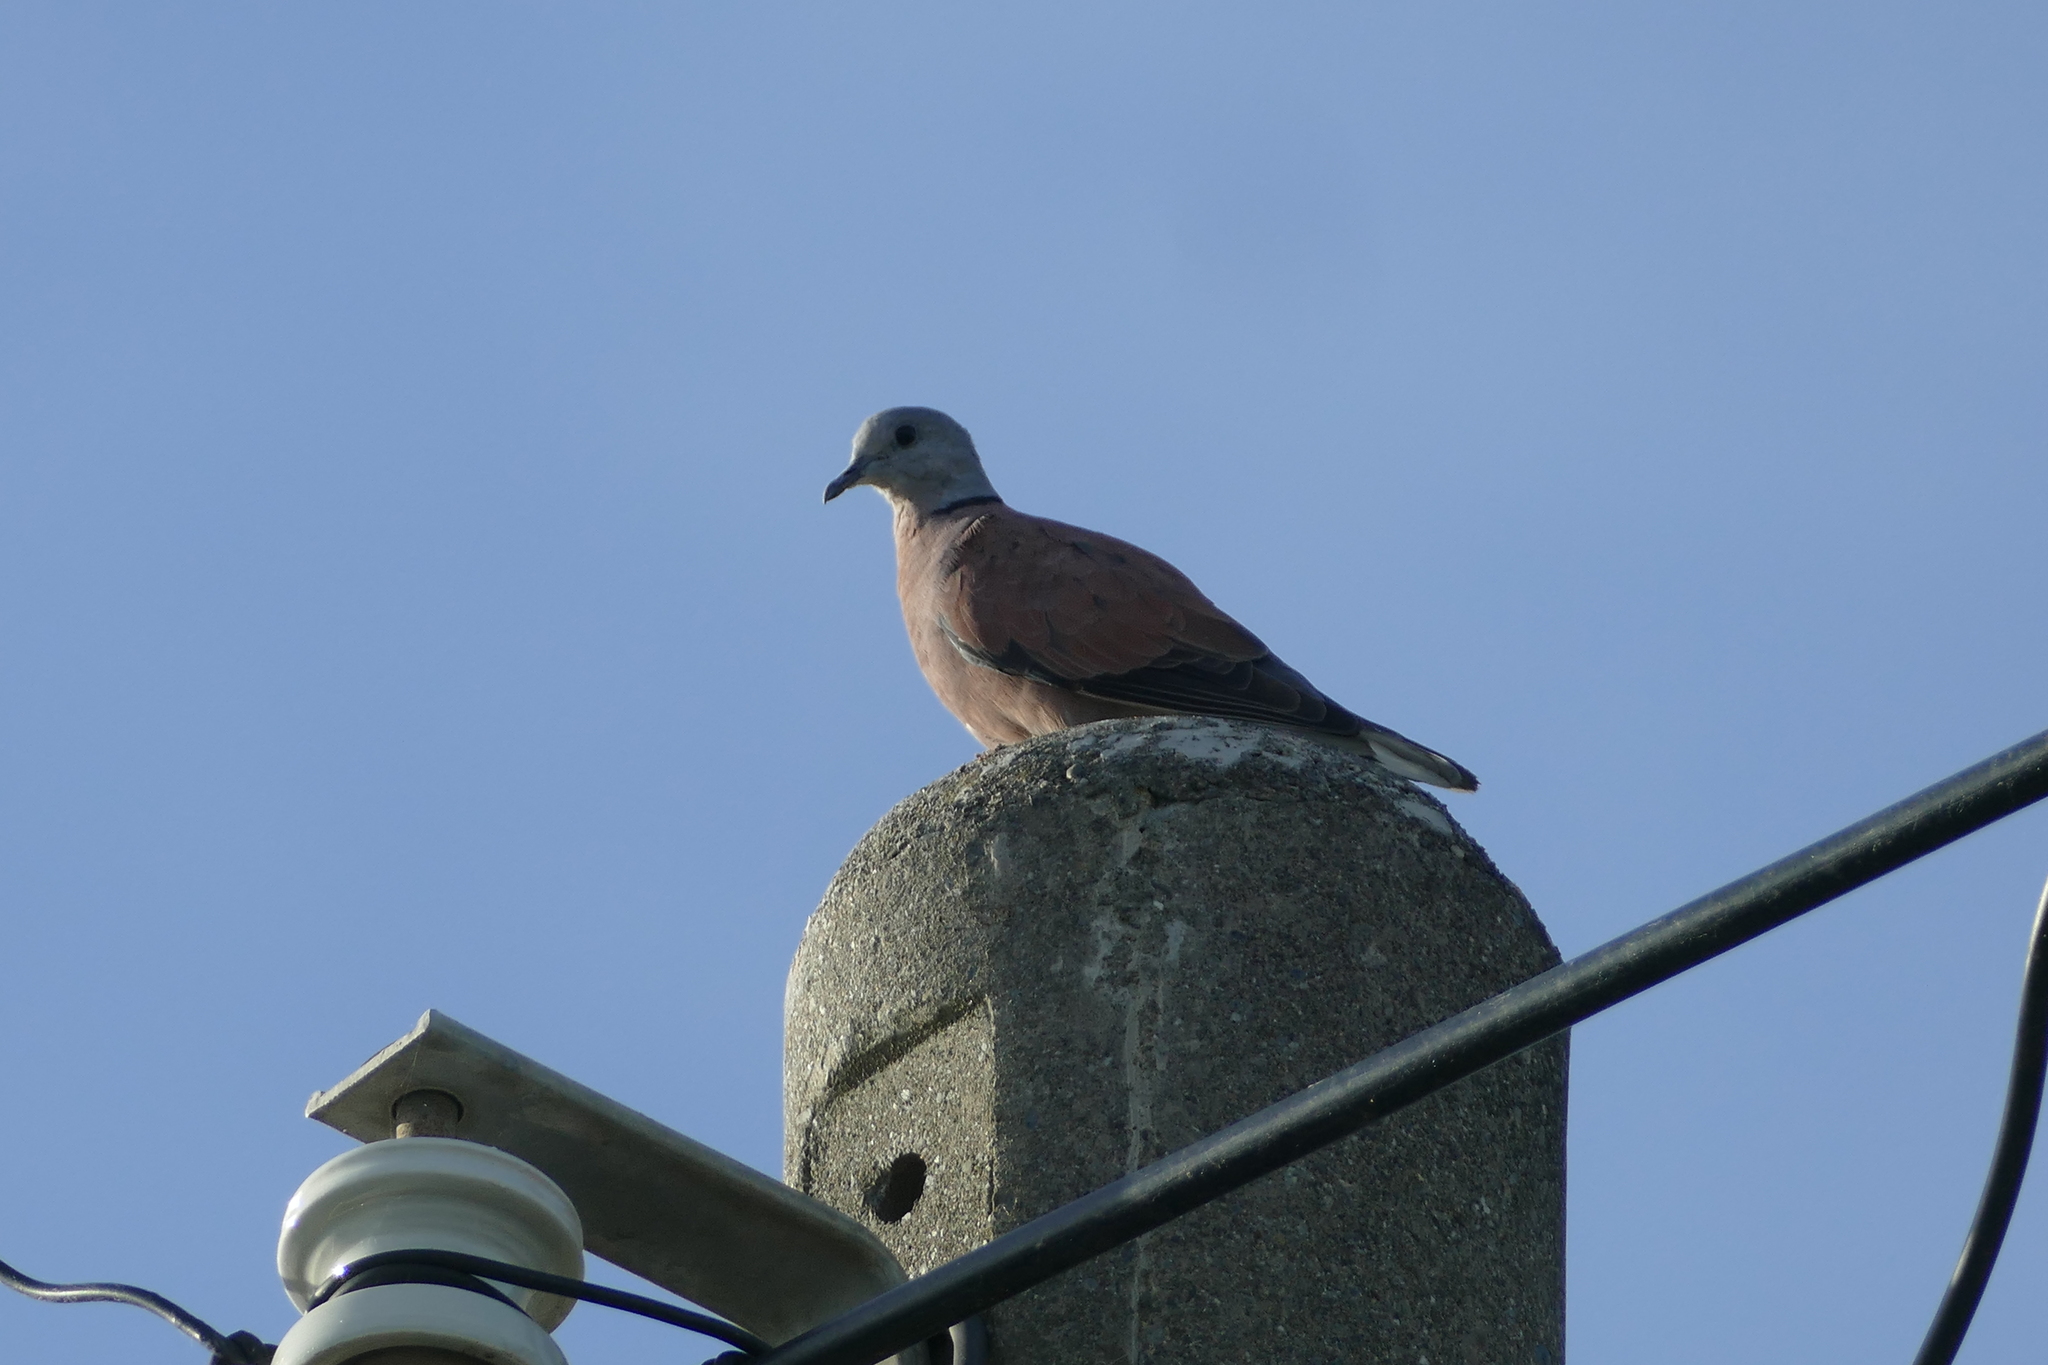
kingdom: Animalia
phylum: Chordata
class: Aves
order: Columbiformes
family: Columbidae
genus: Streptopelia
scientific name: Streptopelia tranquebarica
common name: Red turtle dove
